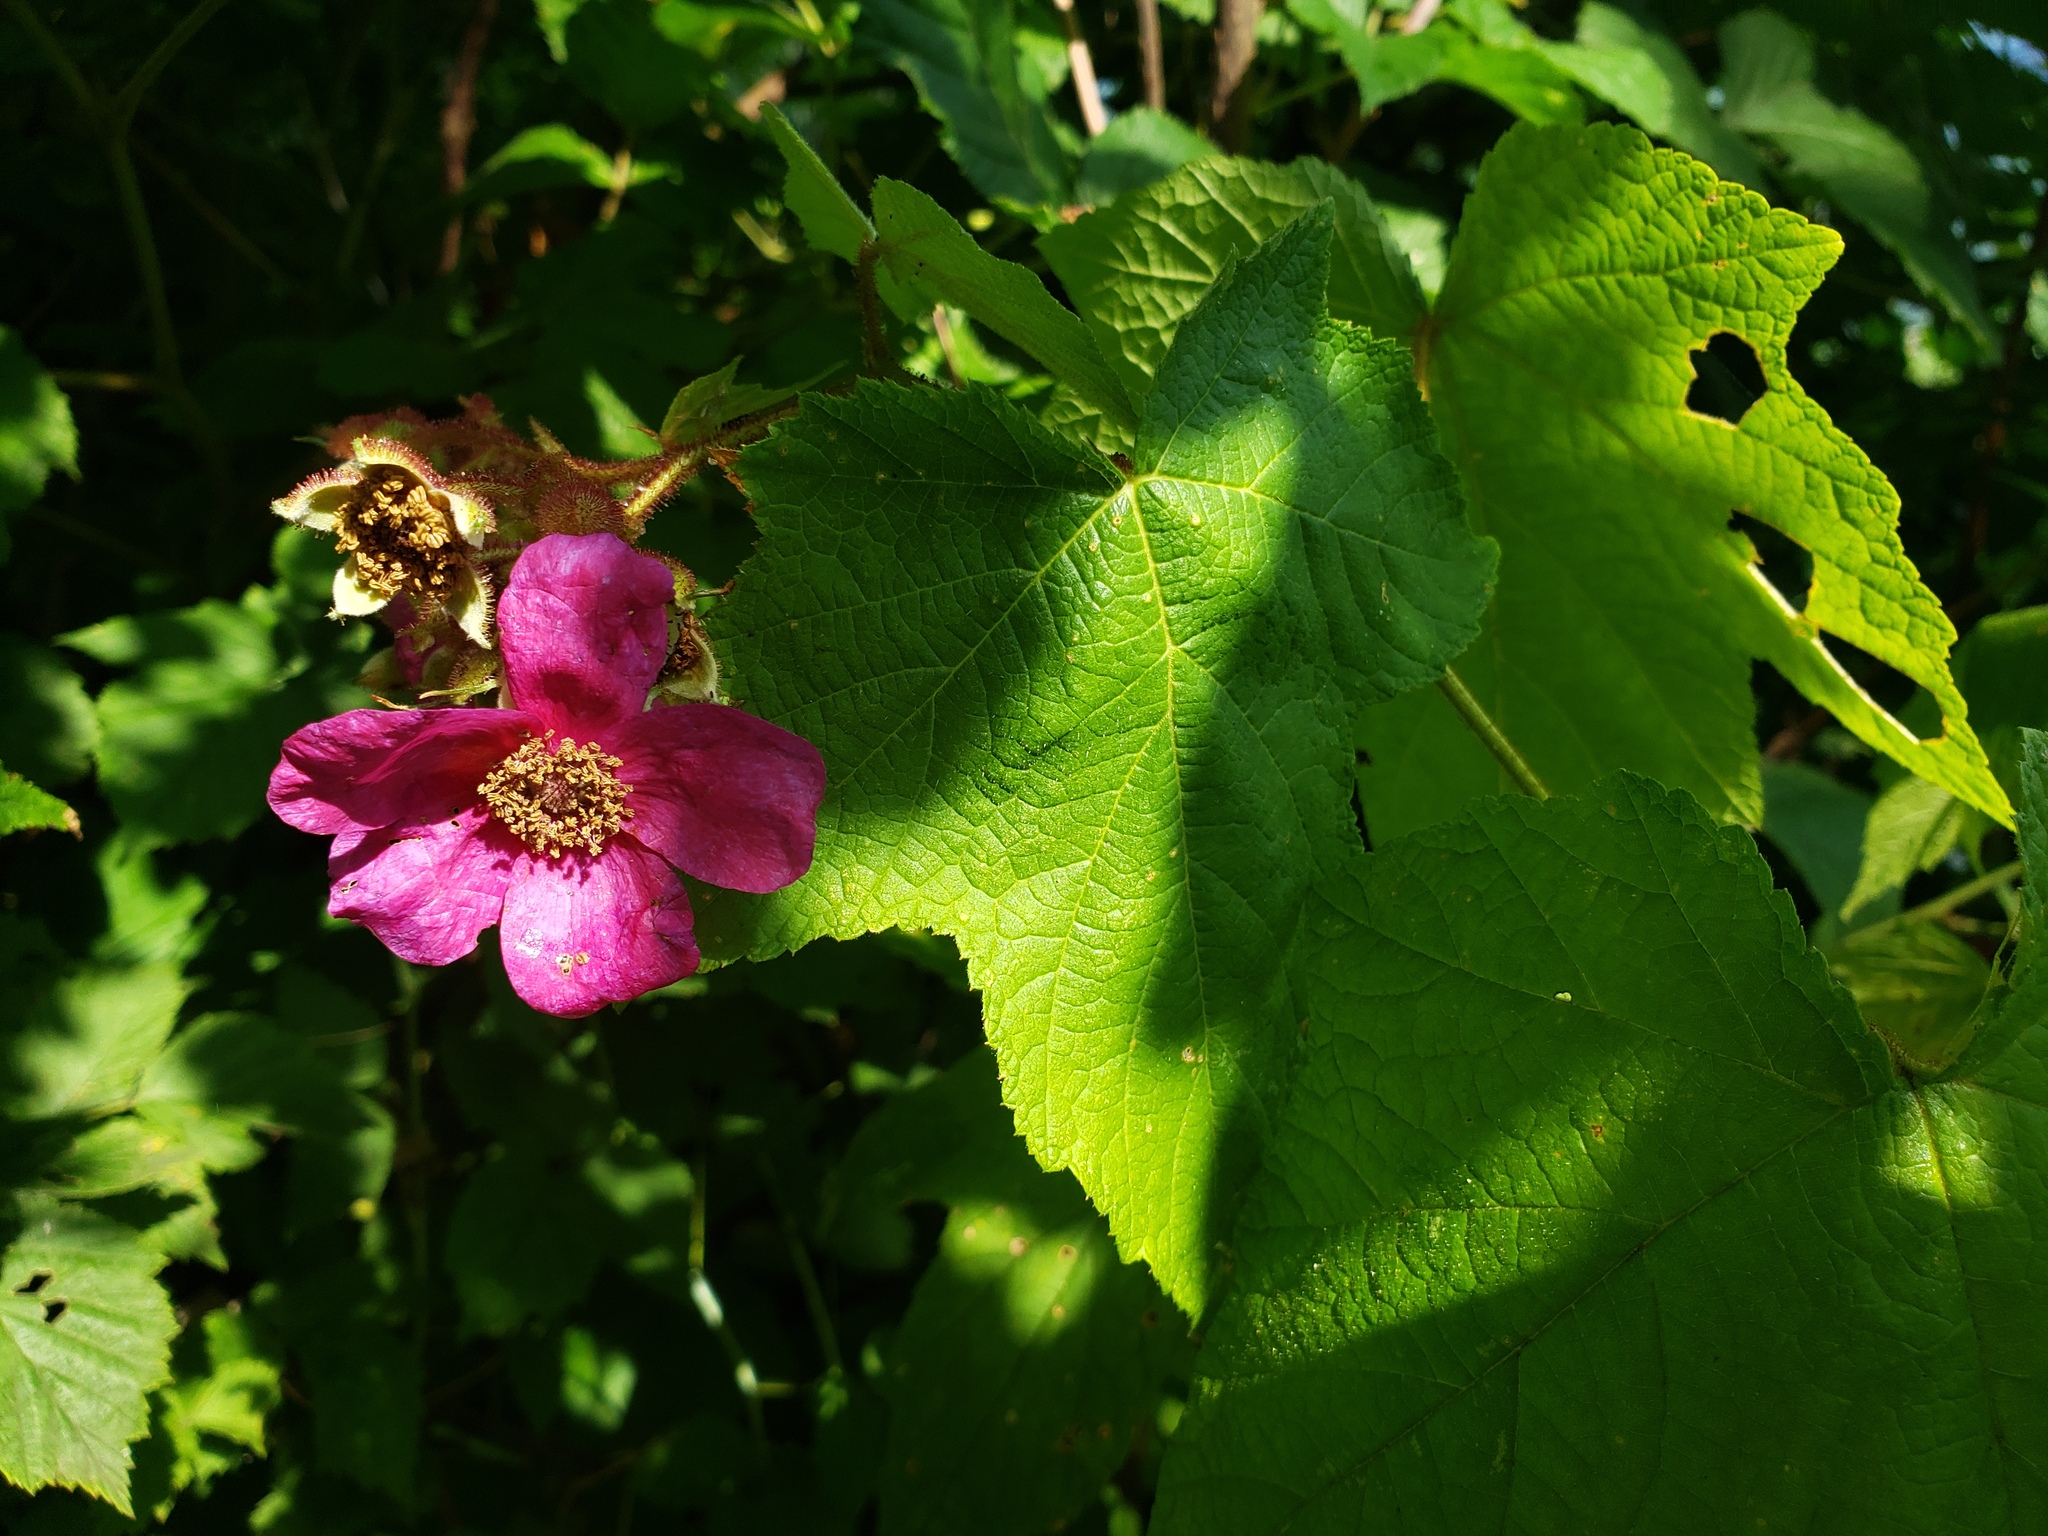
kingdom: Plantae
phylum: Tracheophyta
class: Magnoliopsida
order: Rosales
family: Rosaceae
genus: Rubus
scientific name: Rubus odoratus
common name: Purple-flowered raspberry
